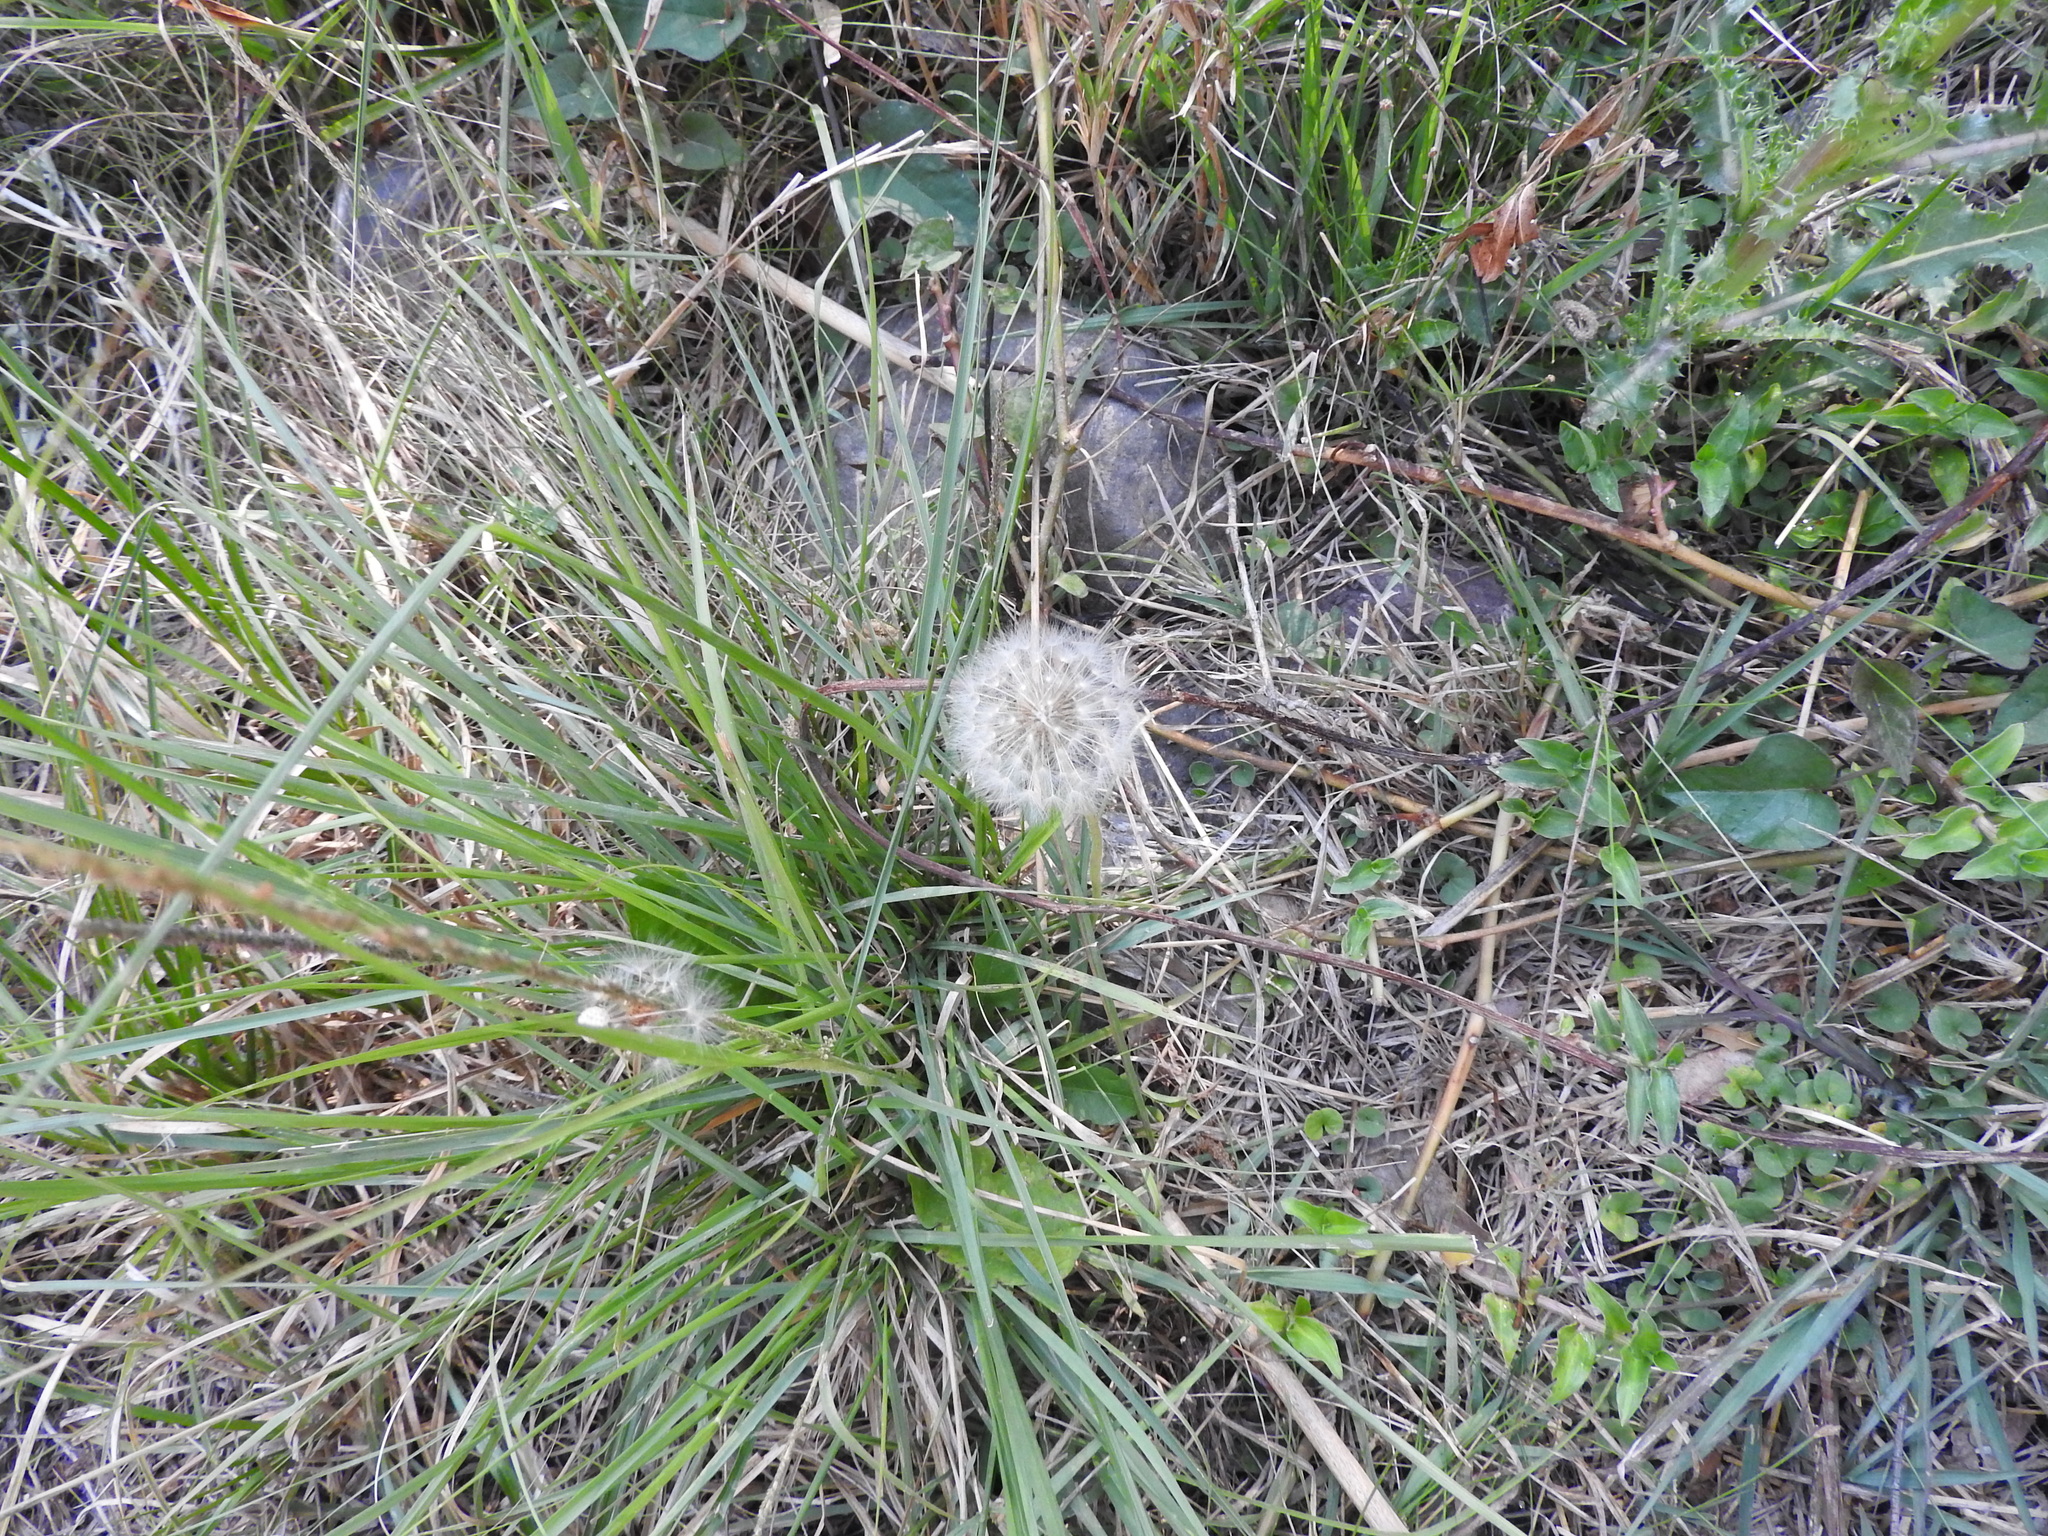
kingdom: Plantae
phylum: Tracheophyta
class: Magnoliopsida
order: Asterales
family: Asteraceae
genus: Taraxacum
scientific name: Taraxacum officinale
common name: Common dandelion
